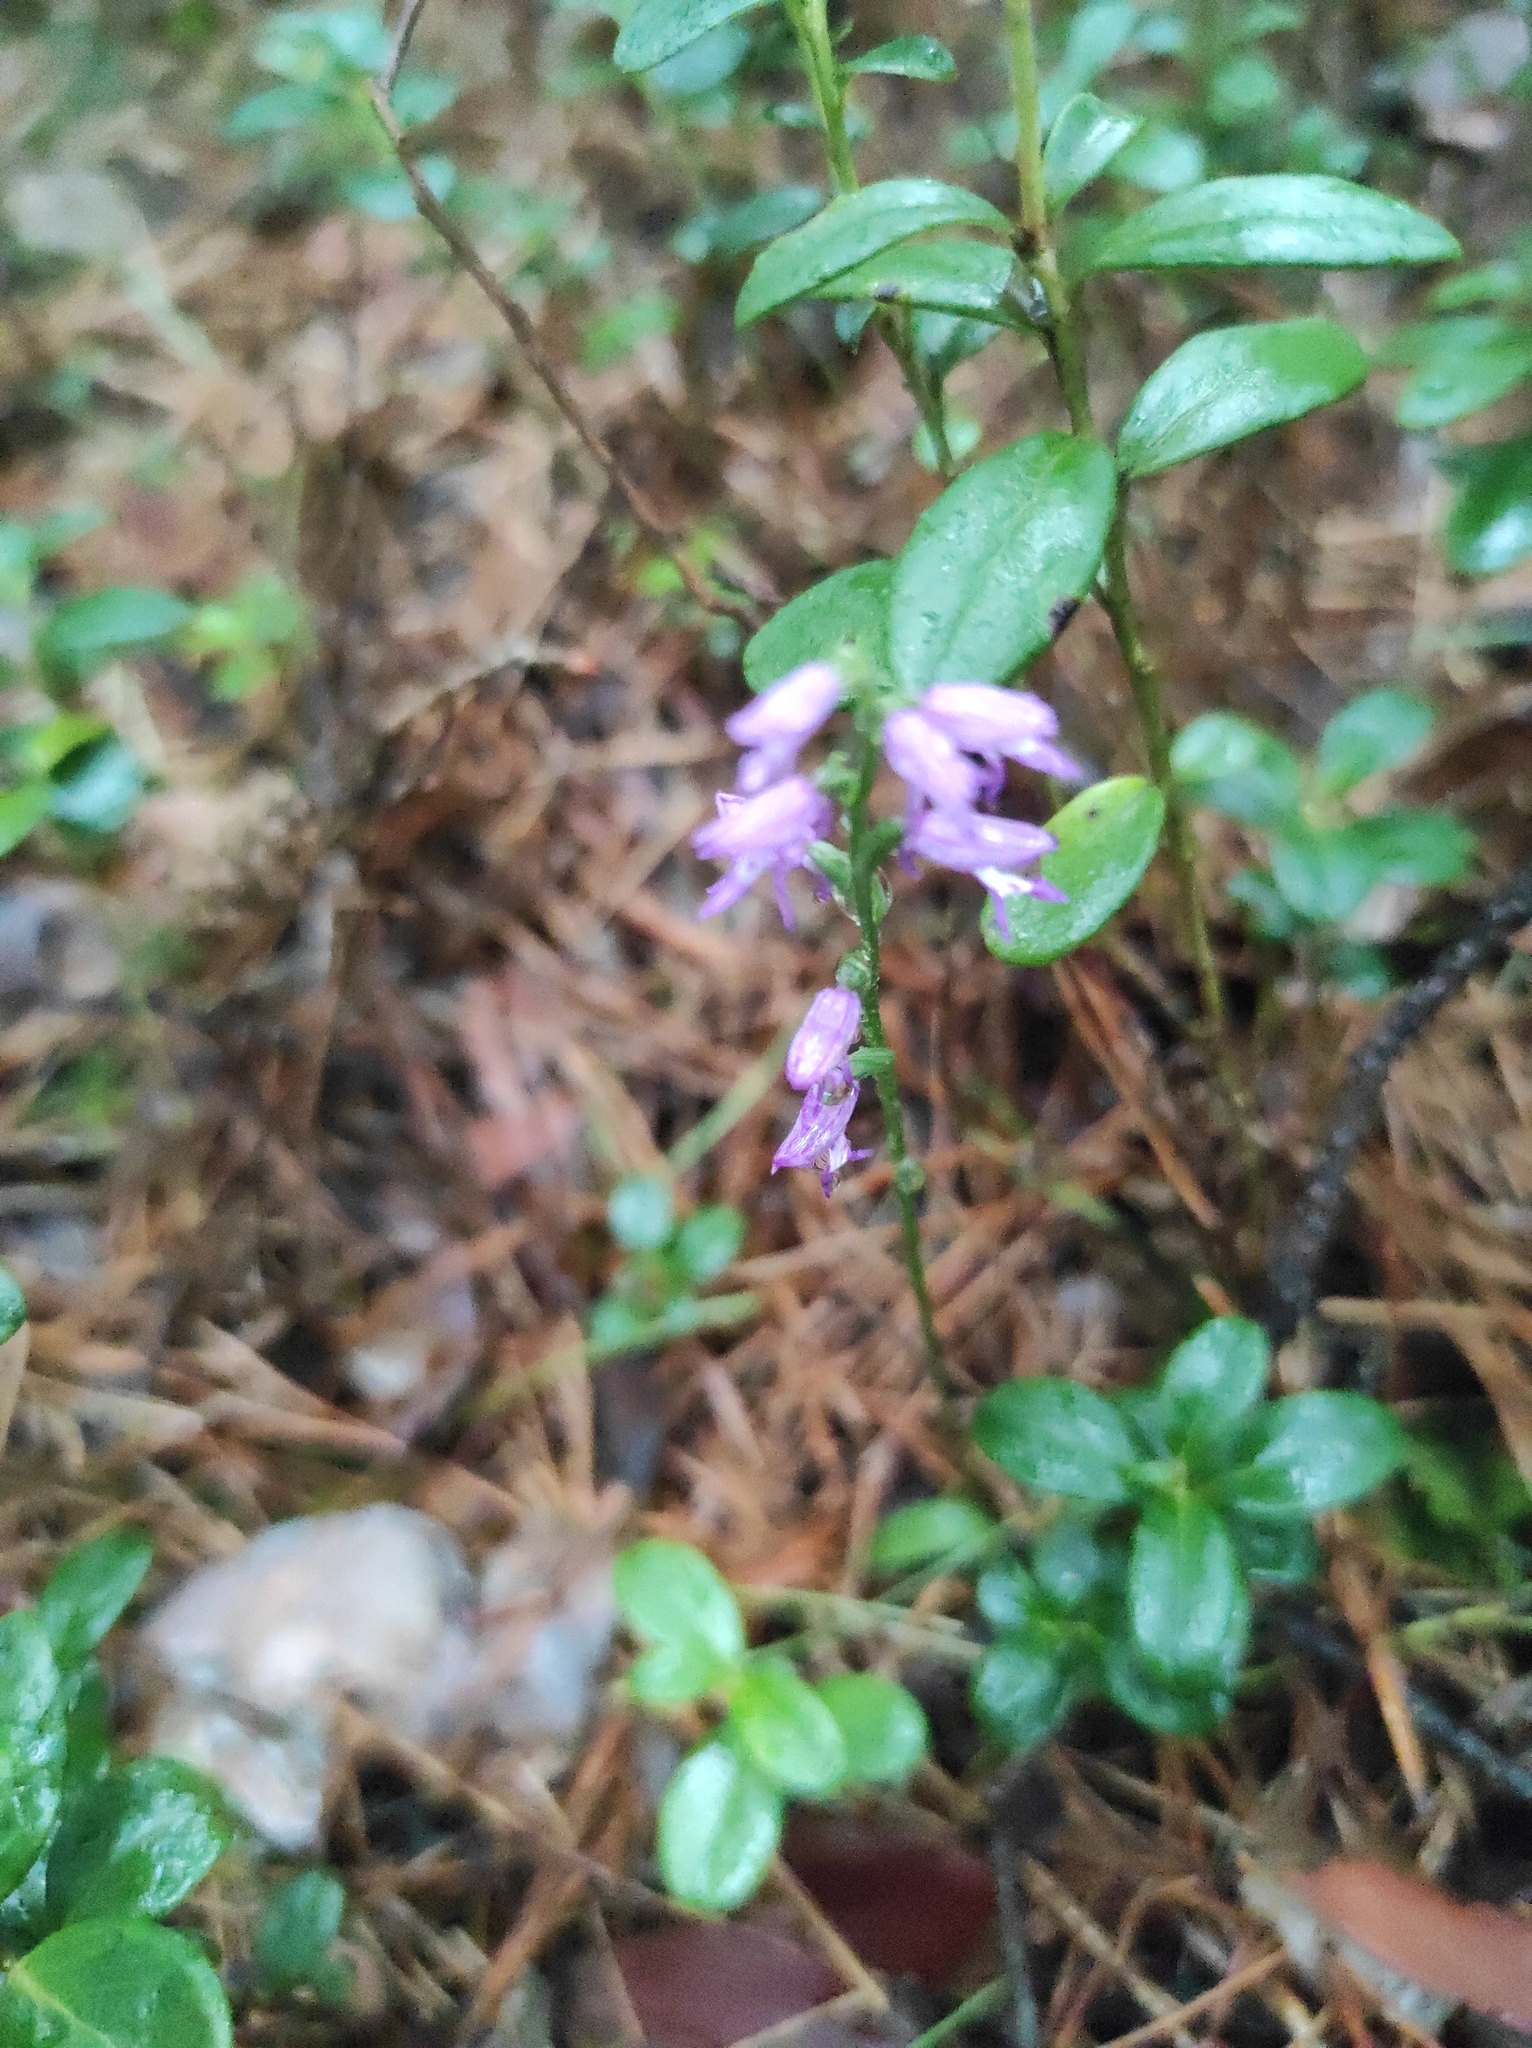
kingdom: Plantae
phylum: Tracheophyta
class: Liliopsida
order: Asparagales
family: Orchidaceae
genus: Hemipilia
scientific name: Hemipilia cucullata
